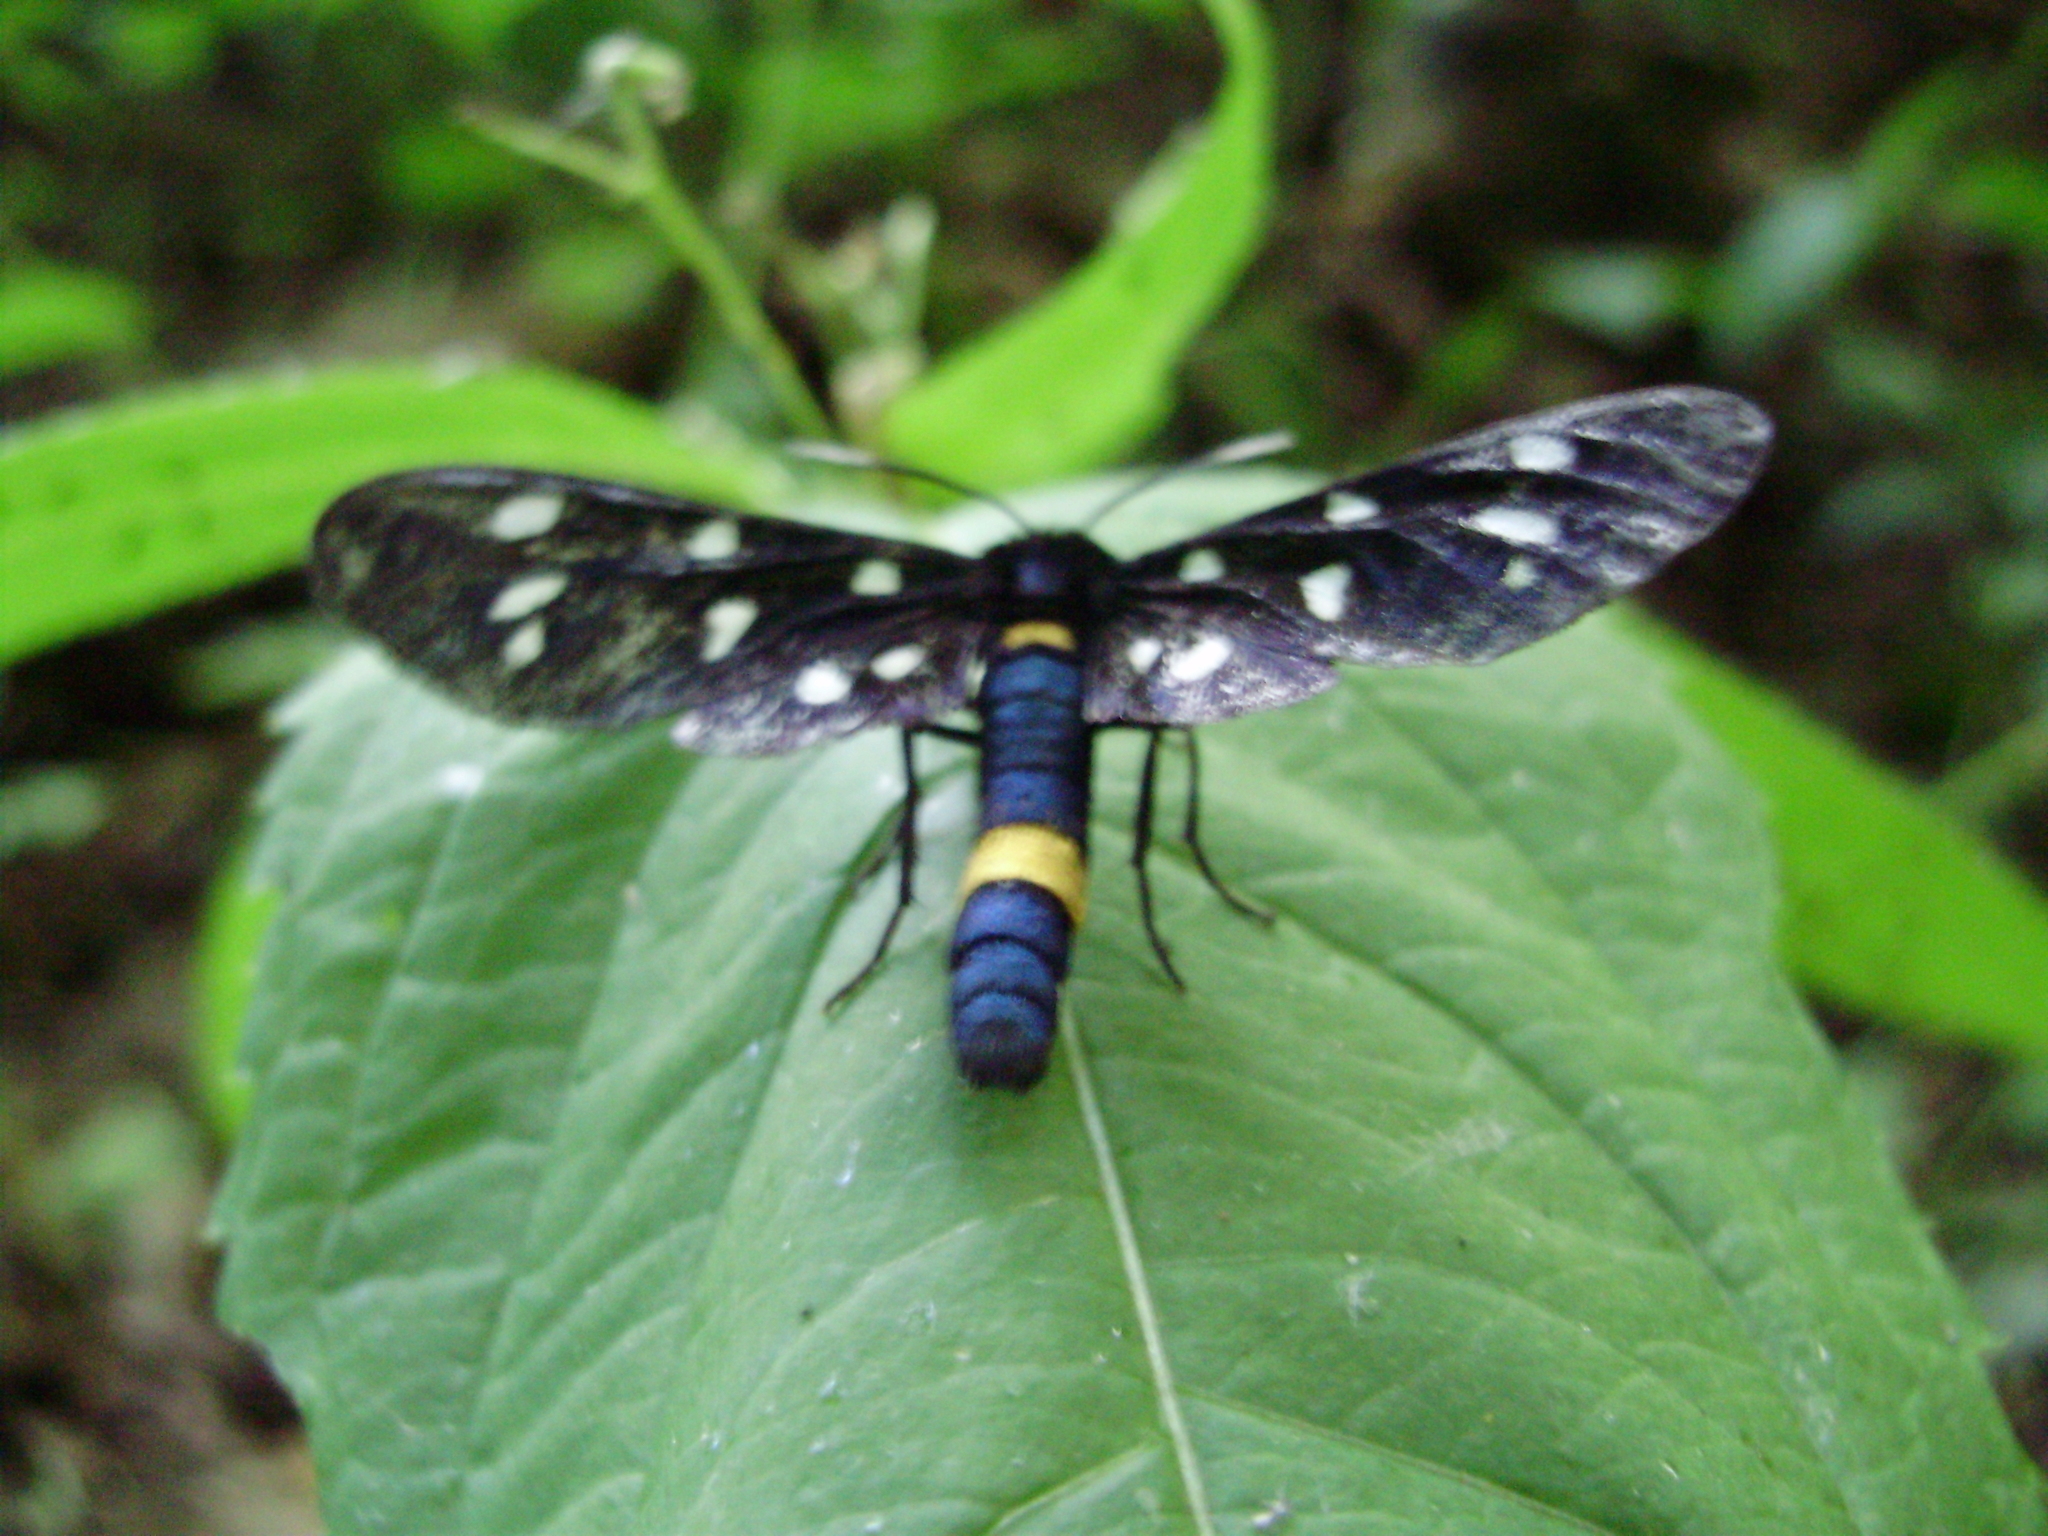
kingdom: Animalia
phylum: Arthropoda
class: Insecta
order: Lepidoptera
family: Erebidae
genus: Amata
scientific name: Amata phegea
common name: Nine-spotted
